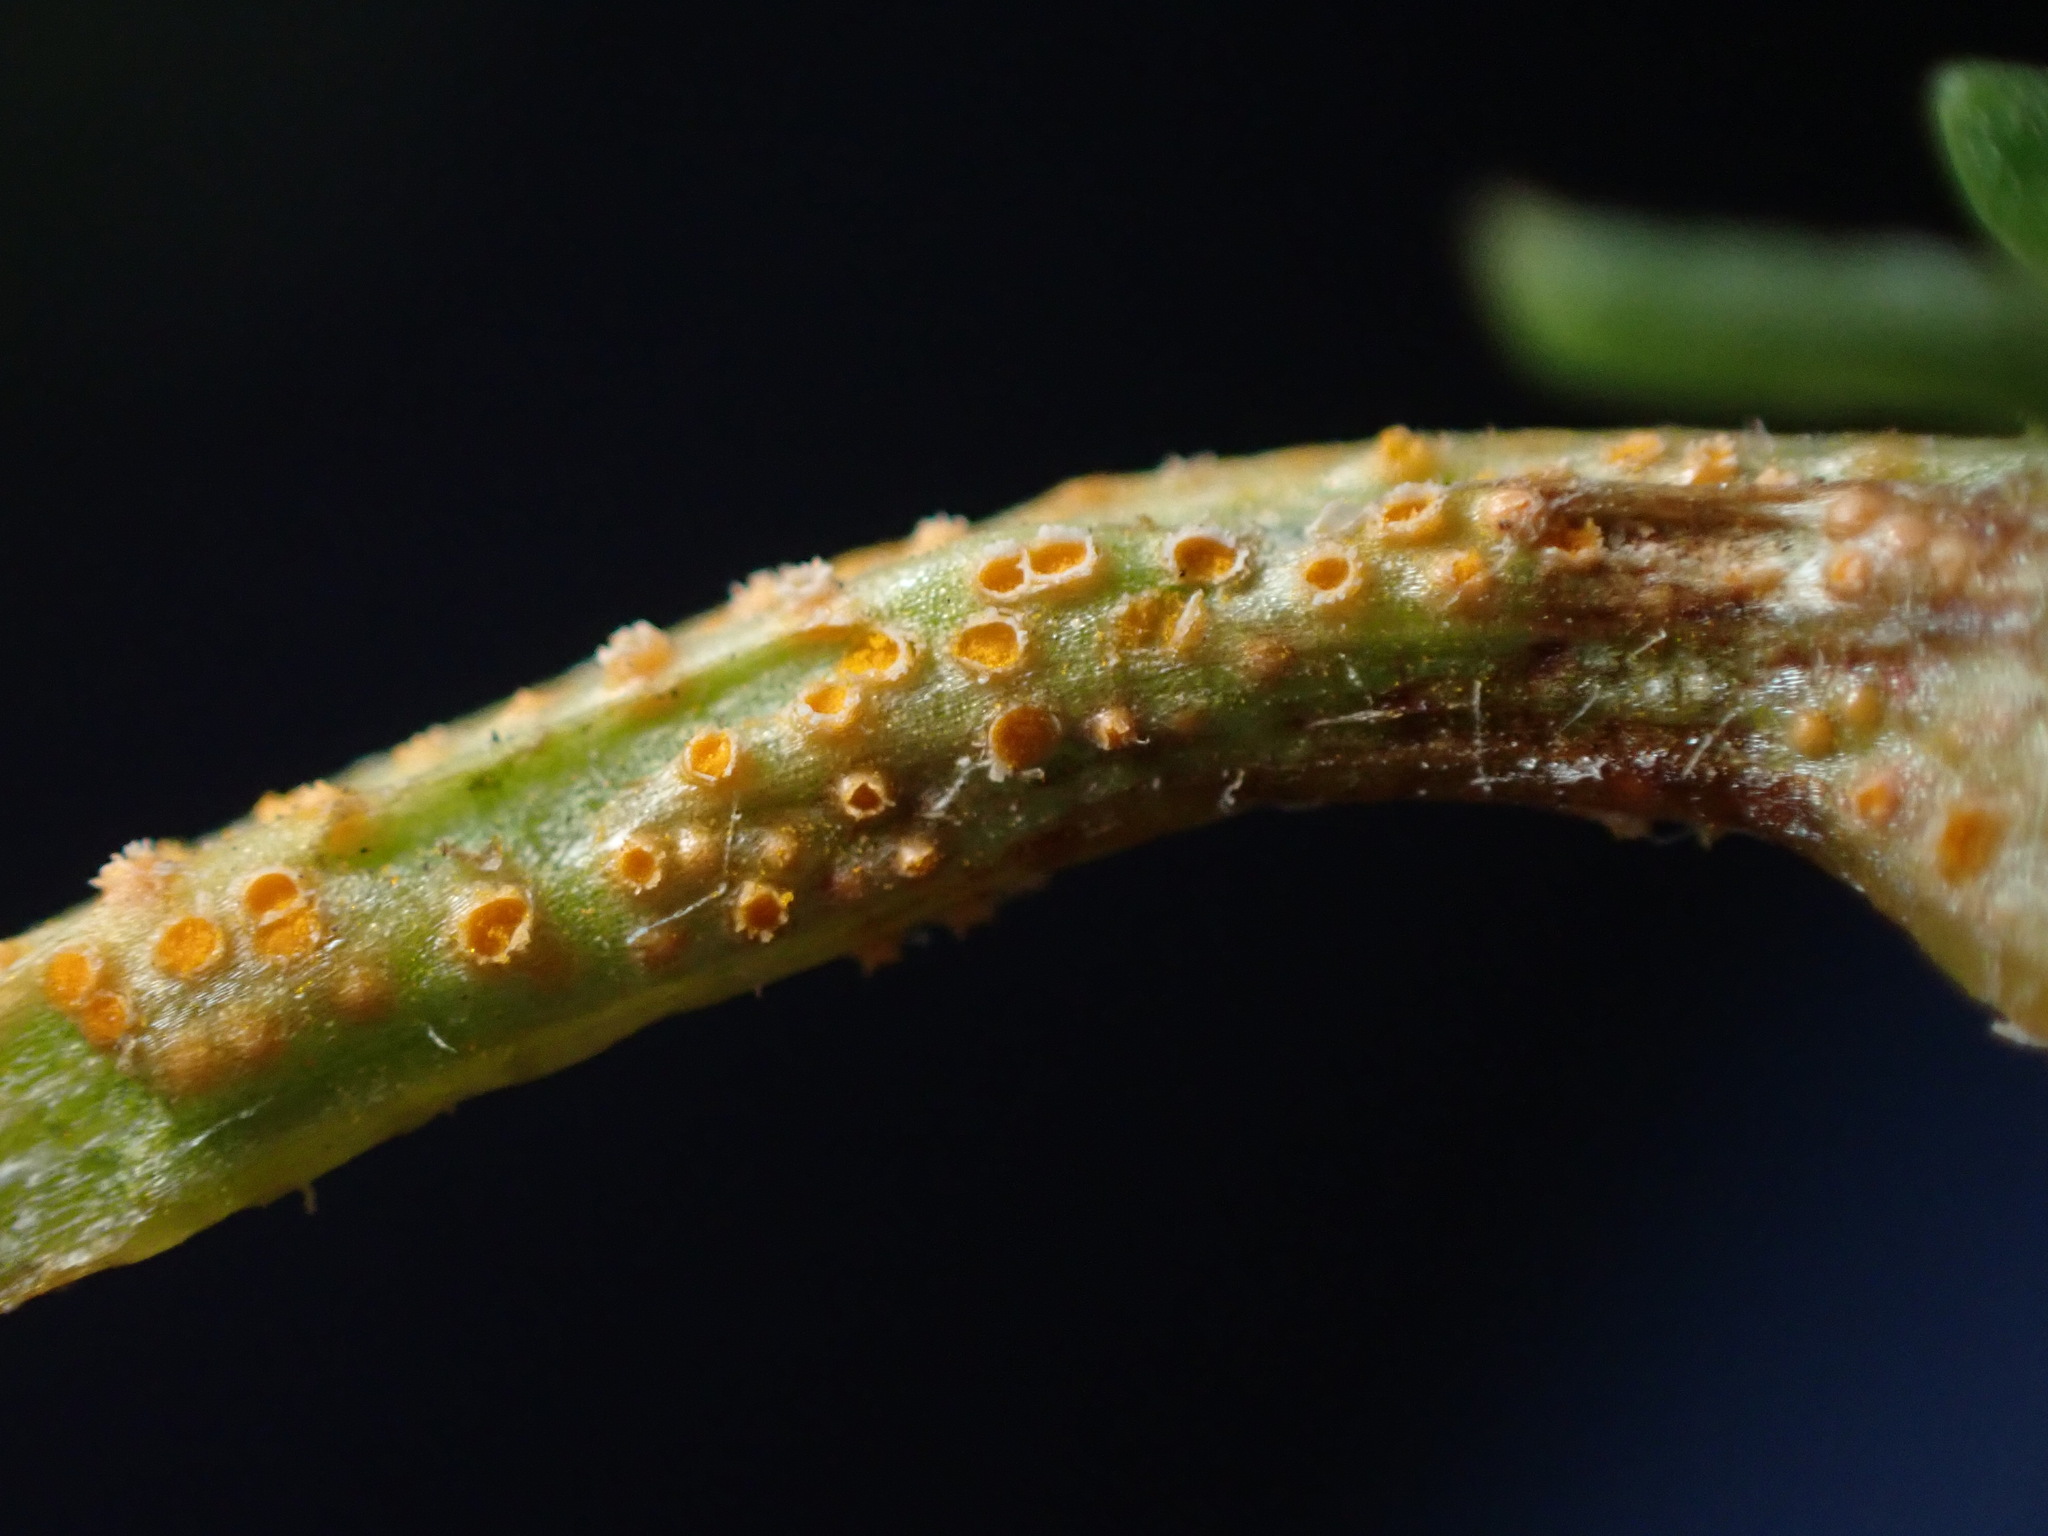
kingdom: Fungi
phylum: Basidiomycota
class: Pucciniomycetes
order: Pucciniales
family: Pucciniaceae
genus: Puccinia
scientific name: Puccinia lagenophorae
